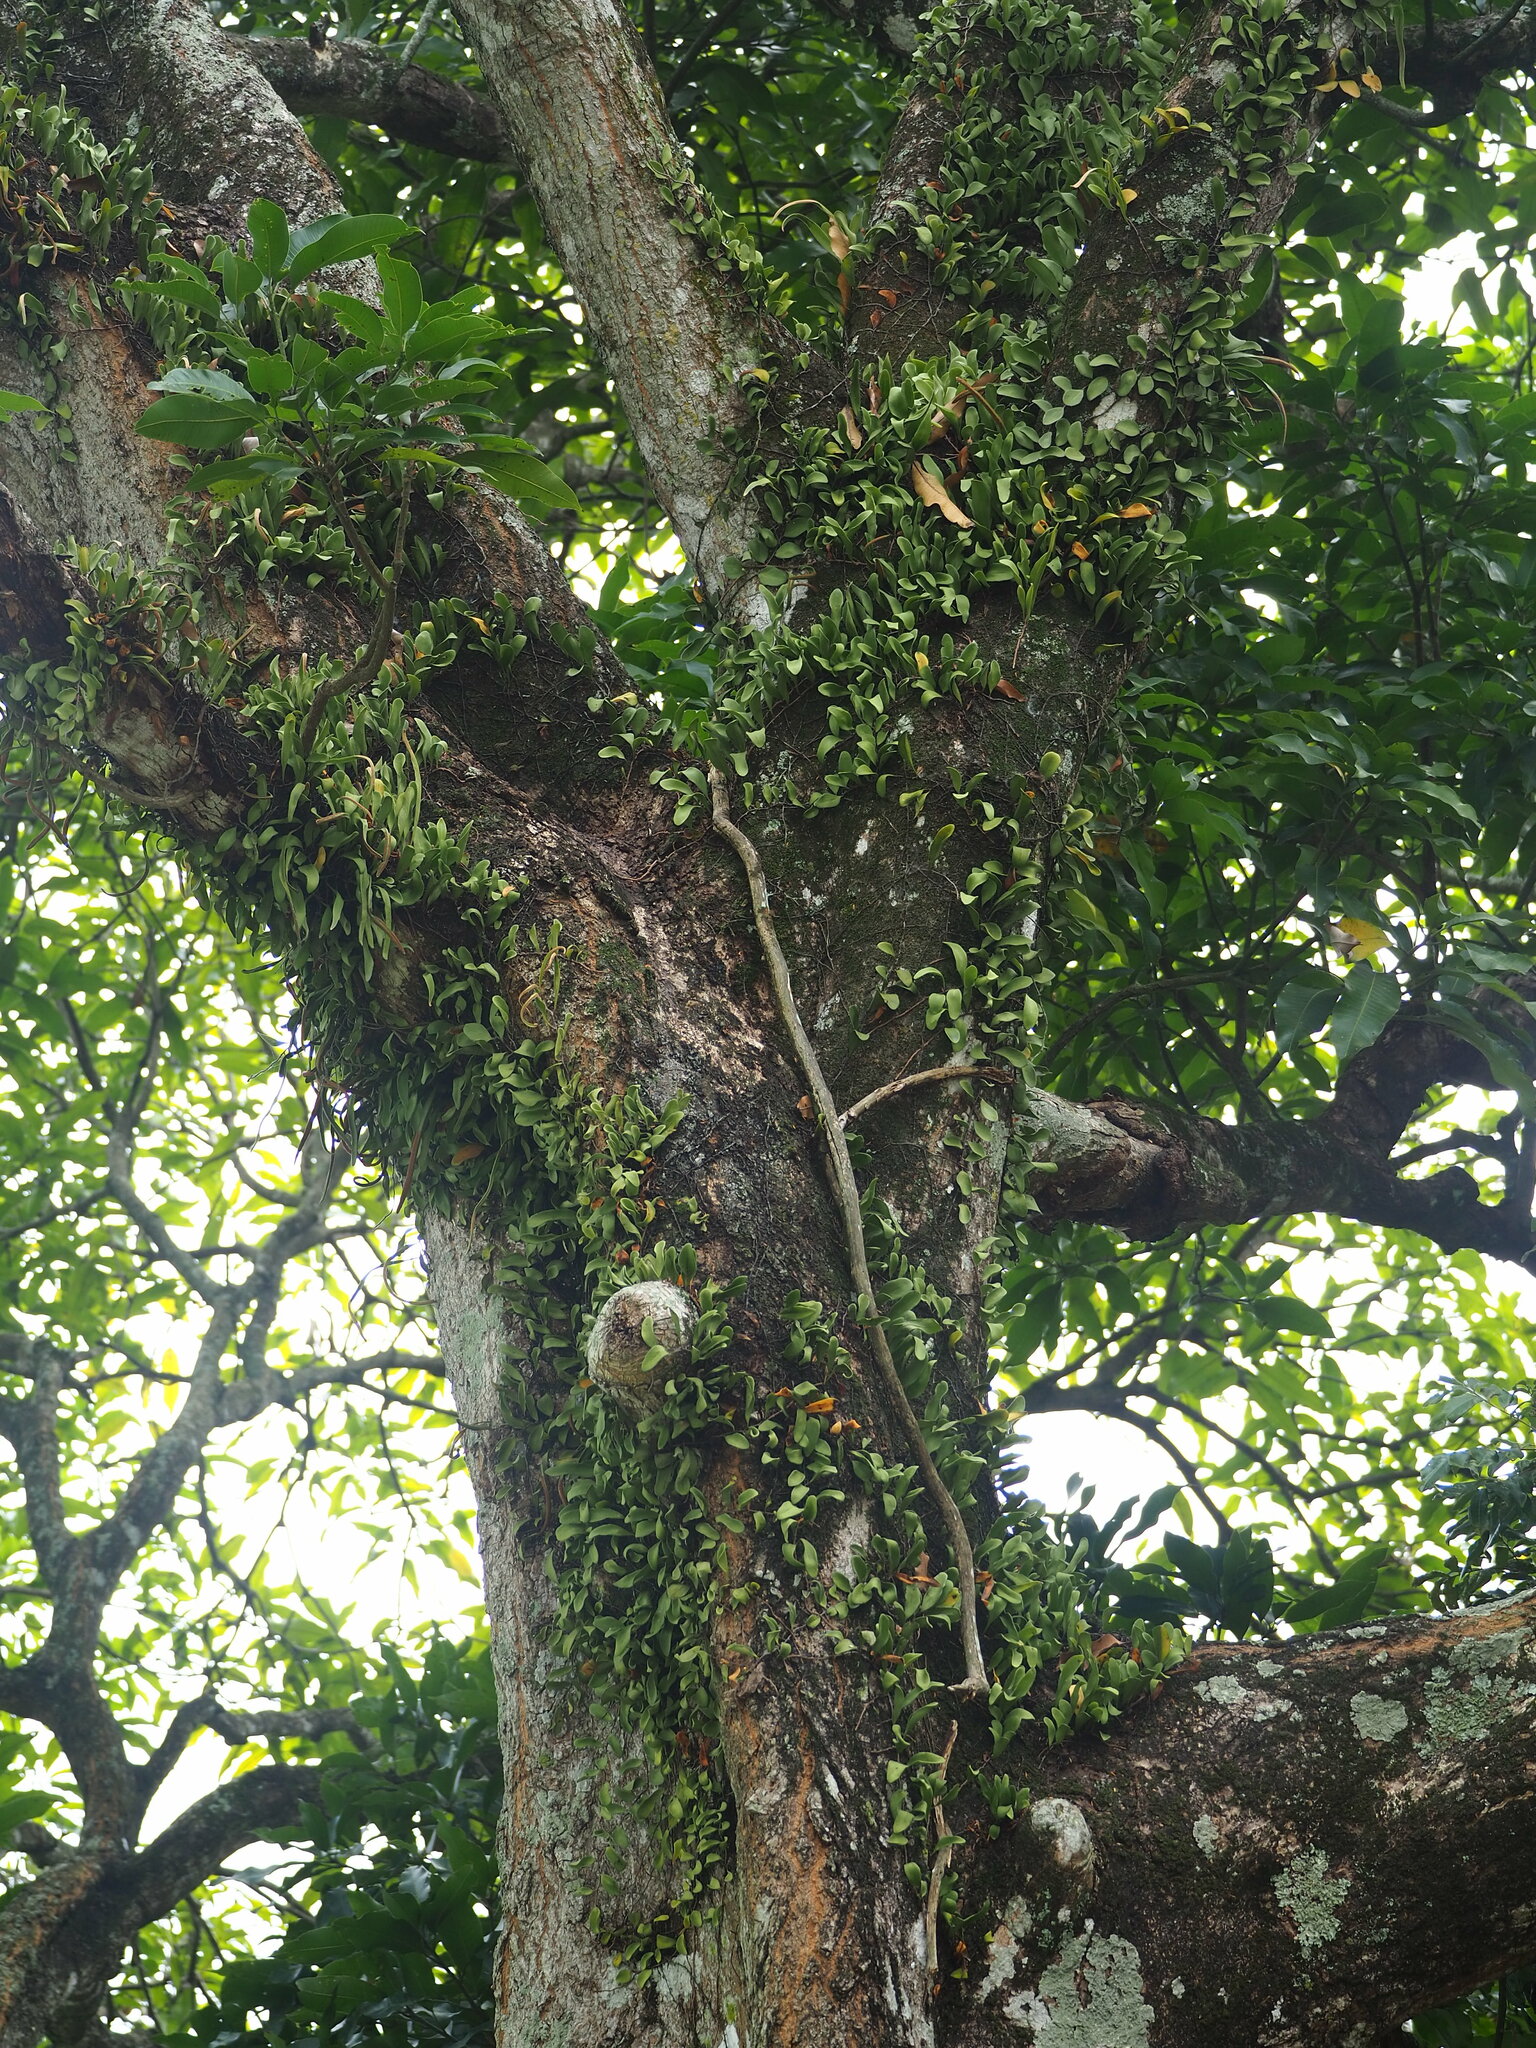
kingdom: Plantae
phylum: Tracheophyta
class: Polypodiopsida
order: Polypodiales
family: Polypodiaceae
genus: Pyrrosia
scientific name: Pyrrosia lanceolata
